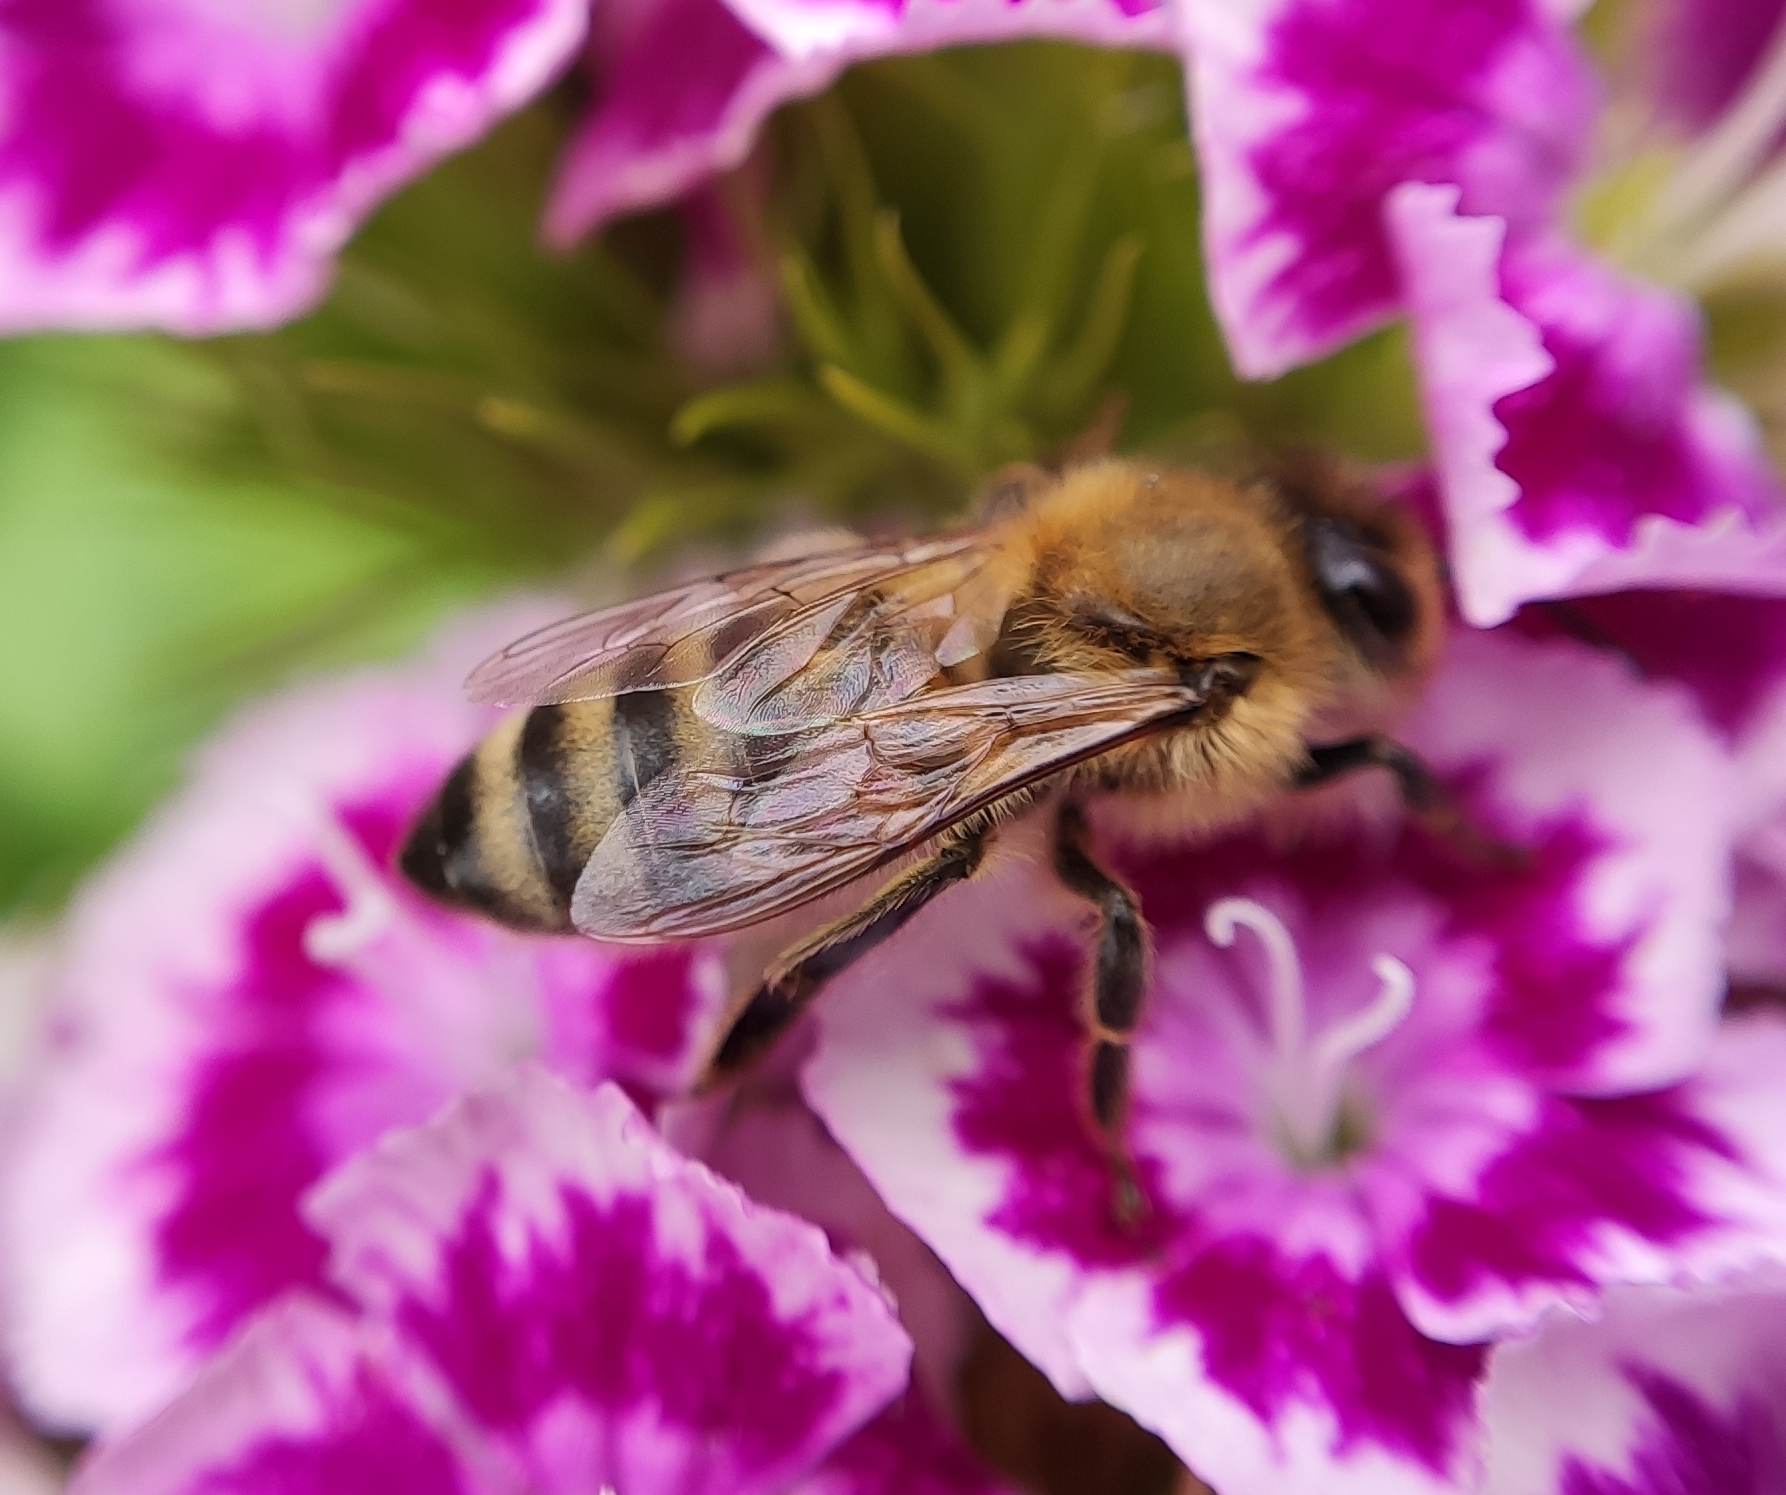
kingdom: Animalia
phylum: Arthropoda
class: Insecta
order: Hymenoptera
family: Apidae
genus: Apis
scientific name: Apis mellifera
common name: Honey bee
